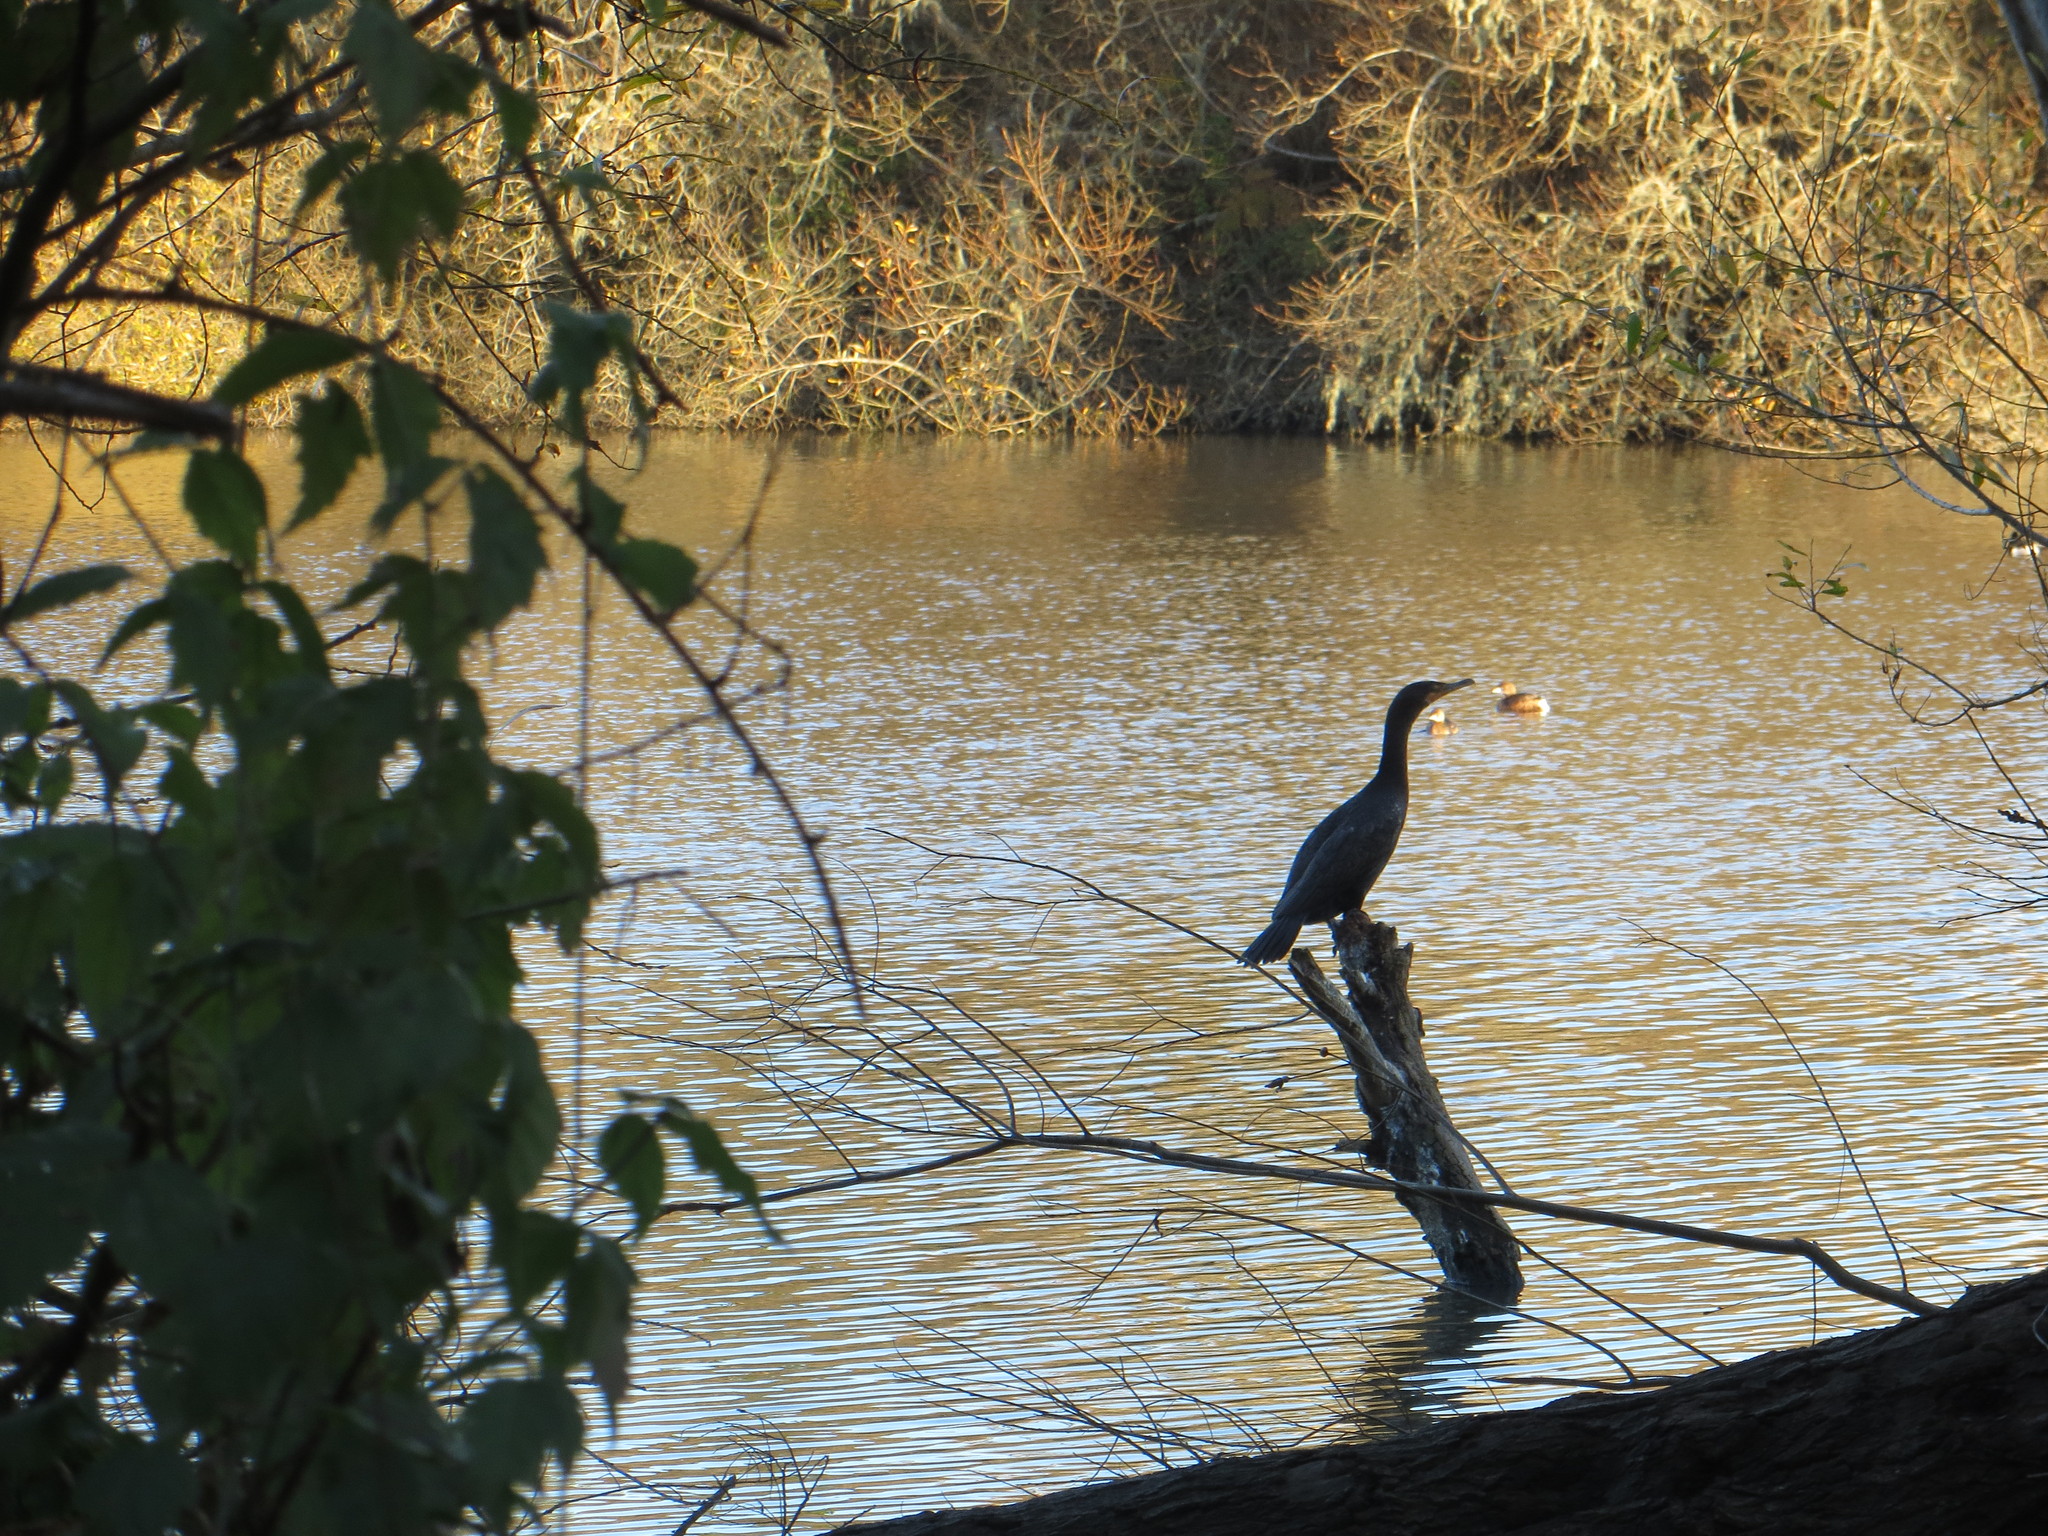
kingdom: Animalia
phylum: Chordata
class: Aves
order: Suliformes
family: Phalacrocoracidae
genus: Phalacrocorax
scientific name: Phalacrocorax auritus
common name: Double-crested cormorant
